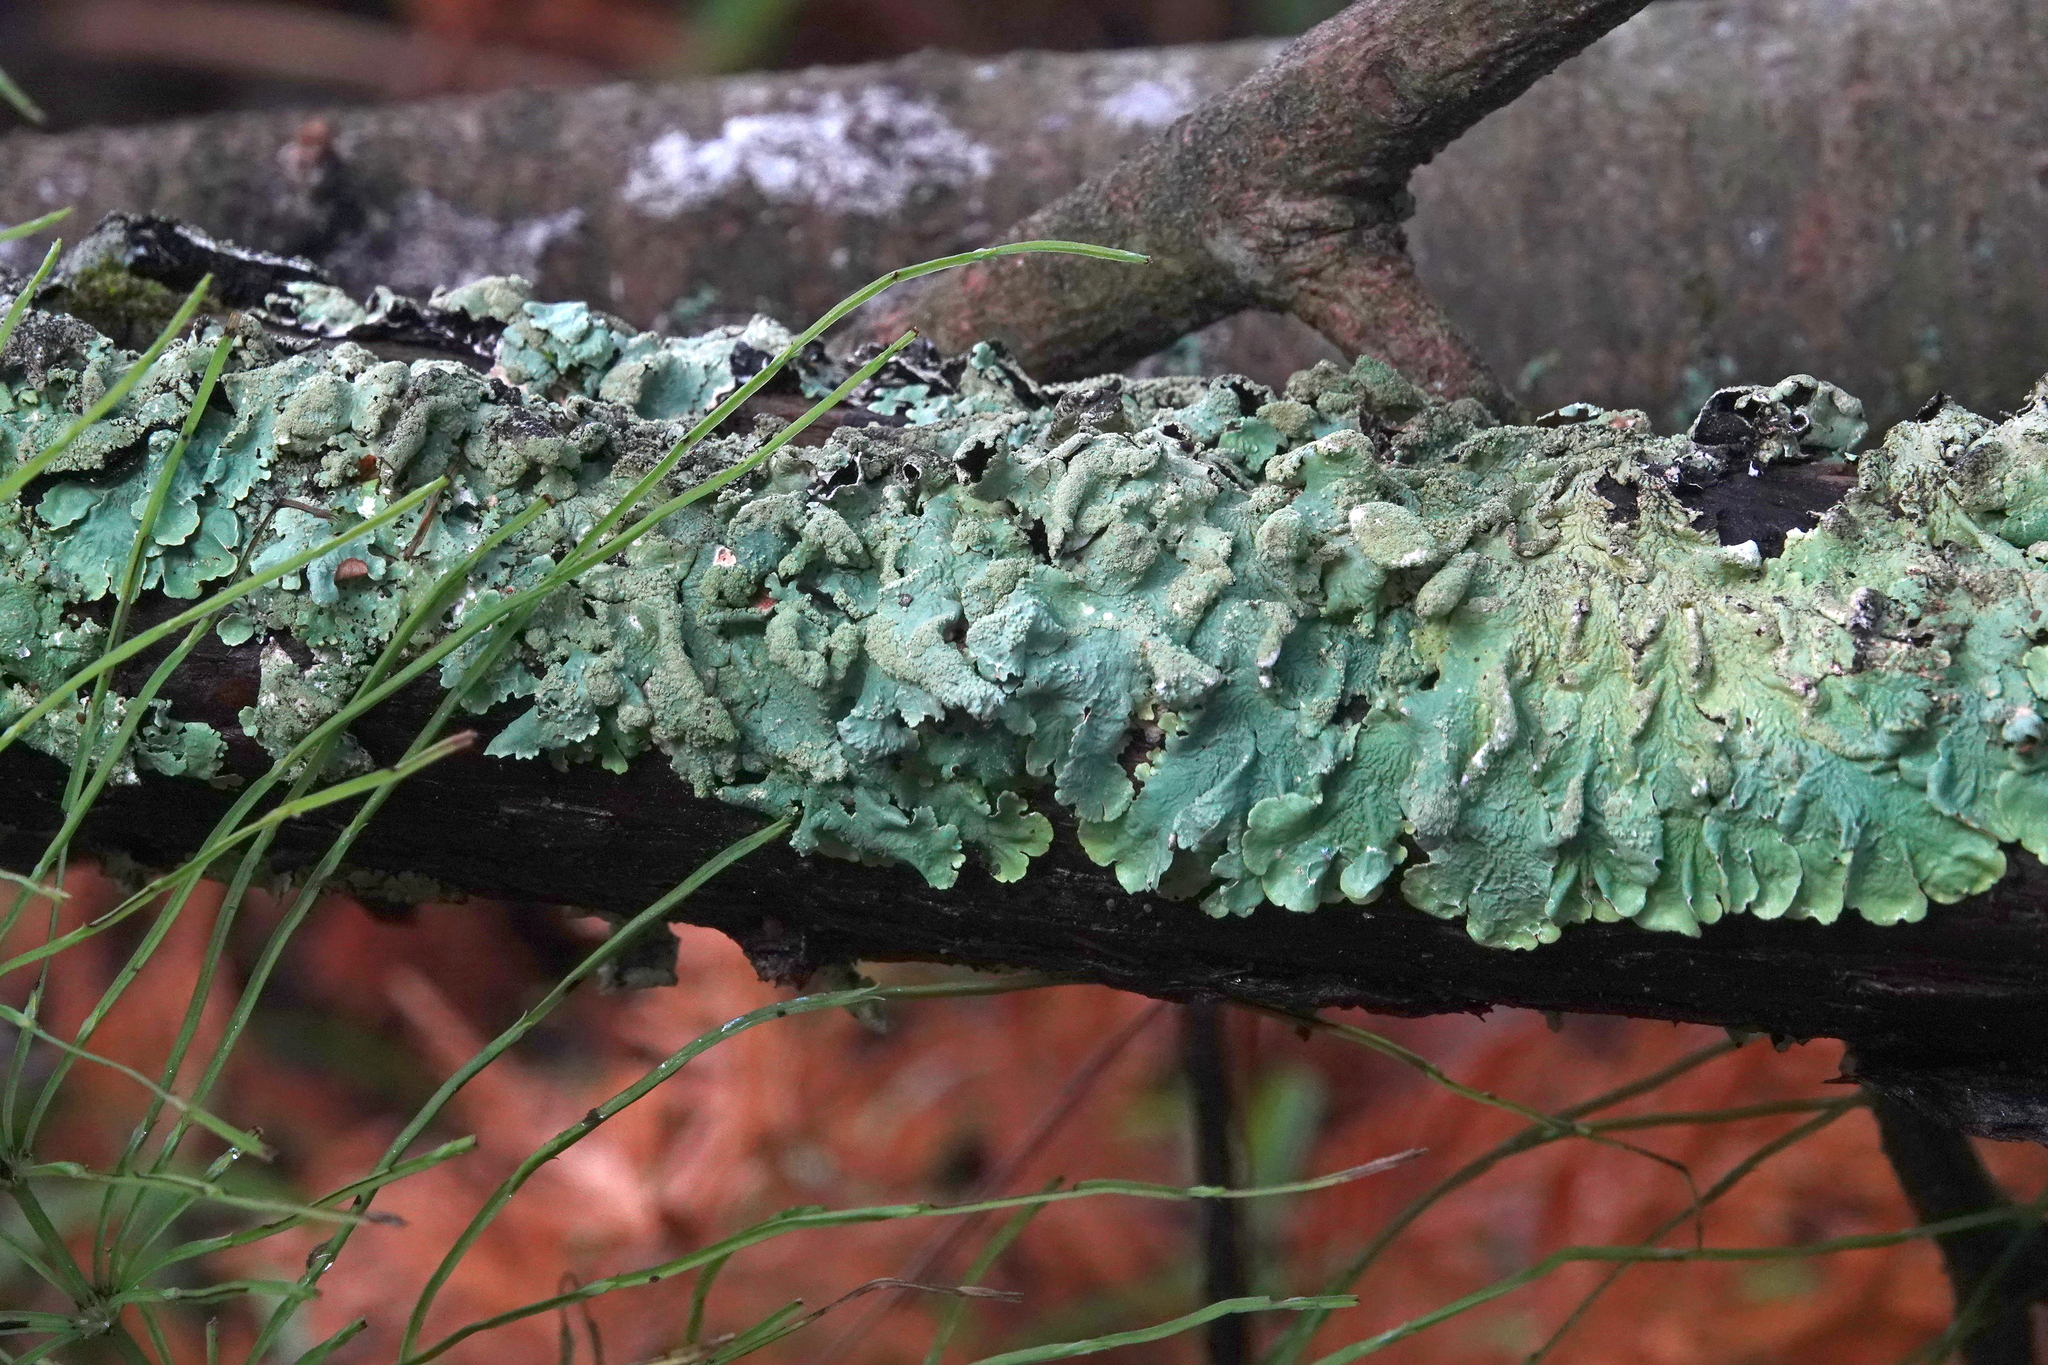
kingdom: Fungi
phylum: Ascomycota
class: Lecanoromycetes
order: Lecanorales
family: Parmeliaceae
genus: Flavoparmelia
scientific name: Flavoparmelia caperata
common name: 40-mile per hour lichen
